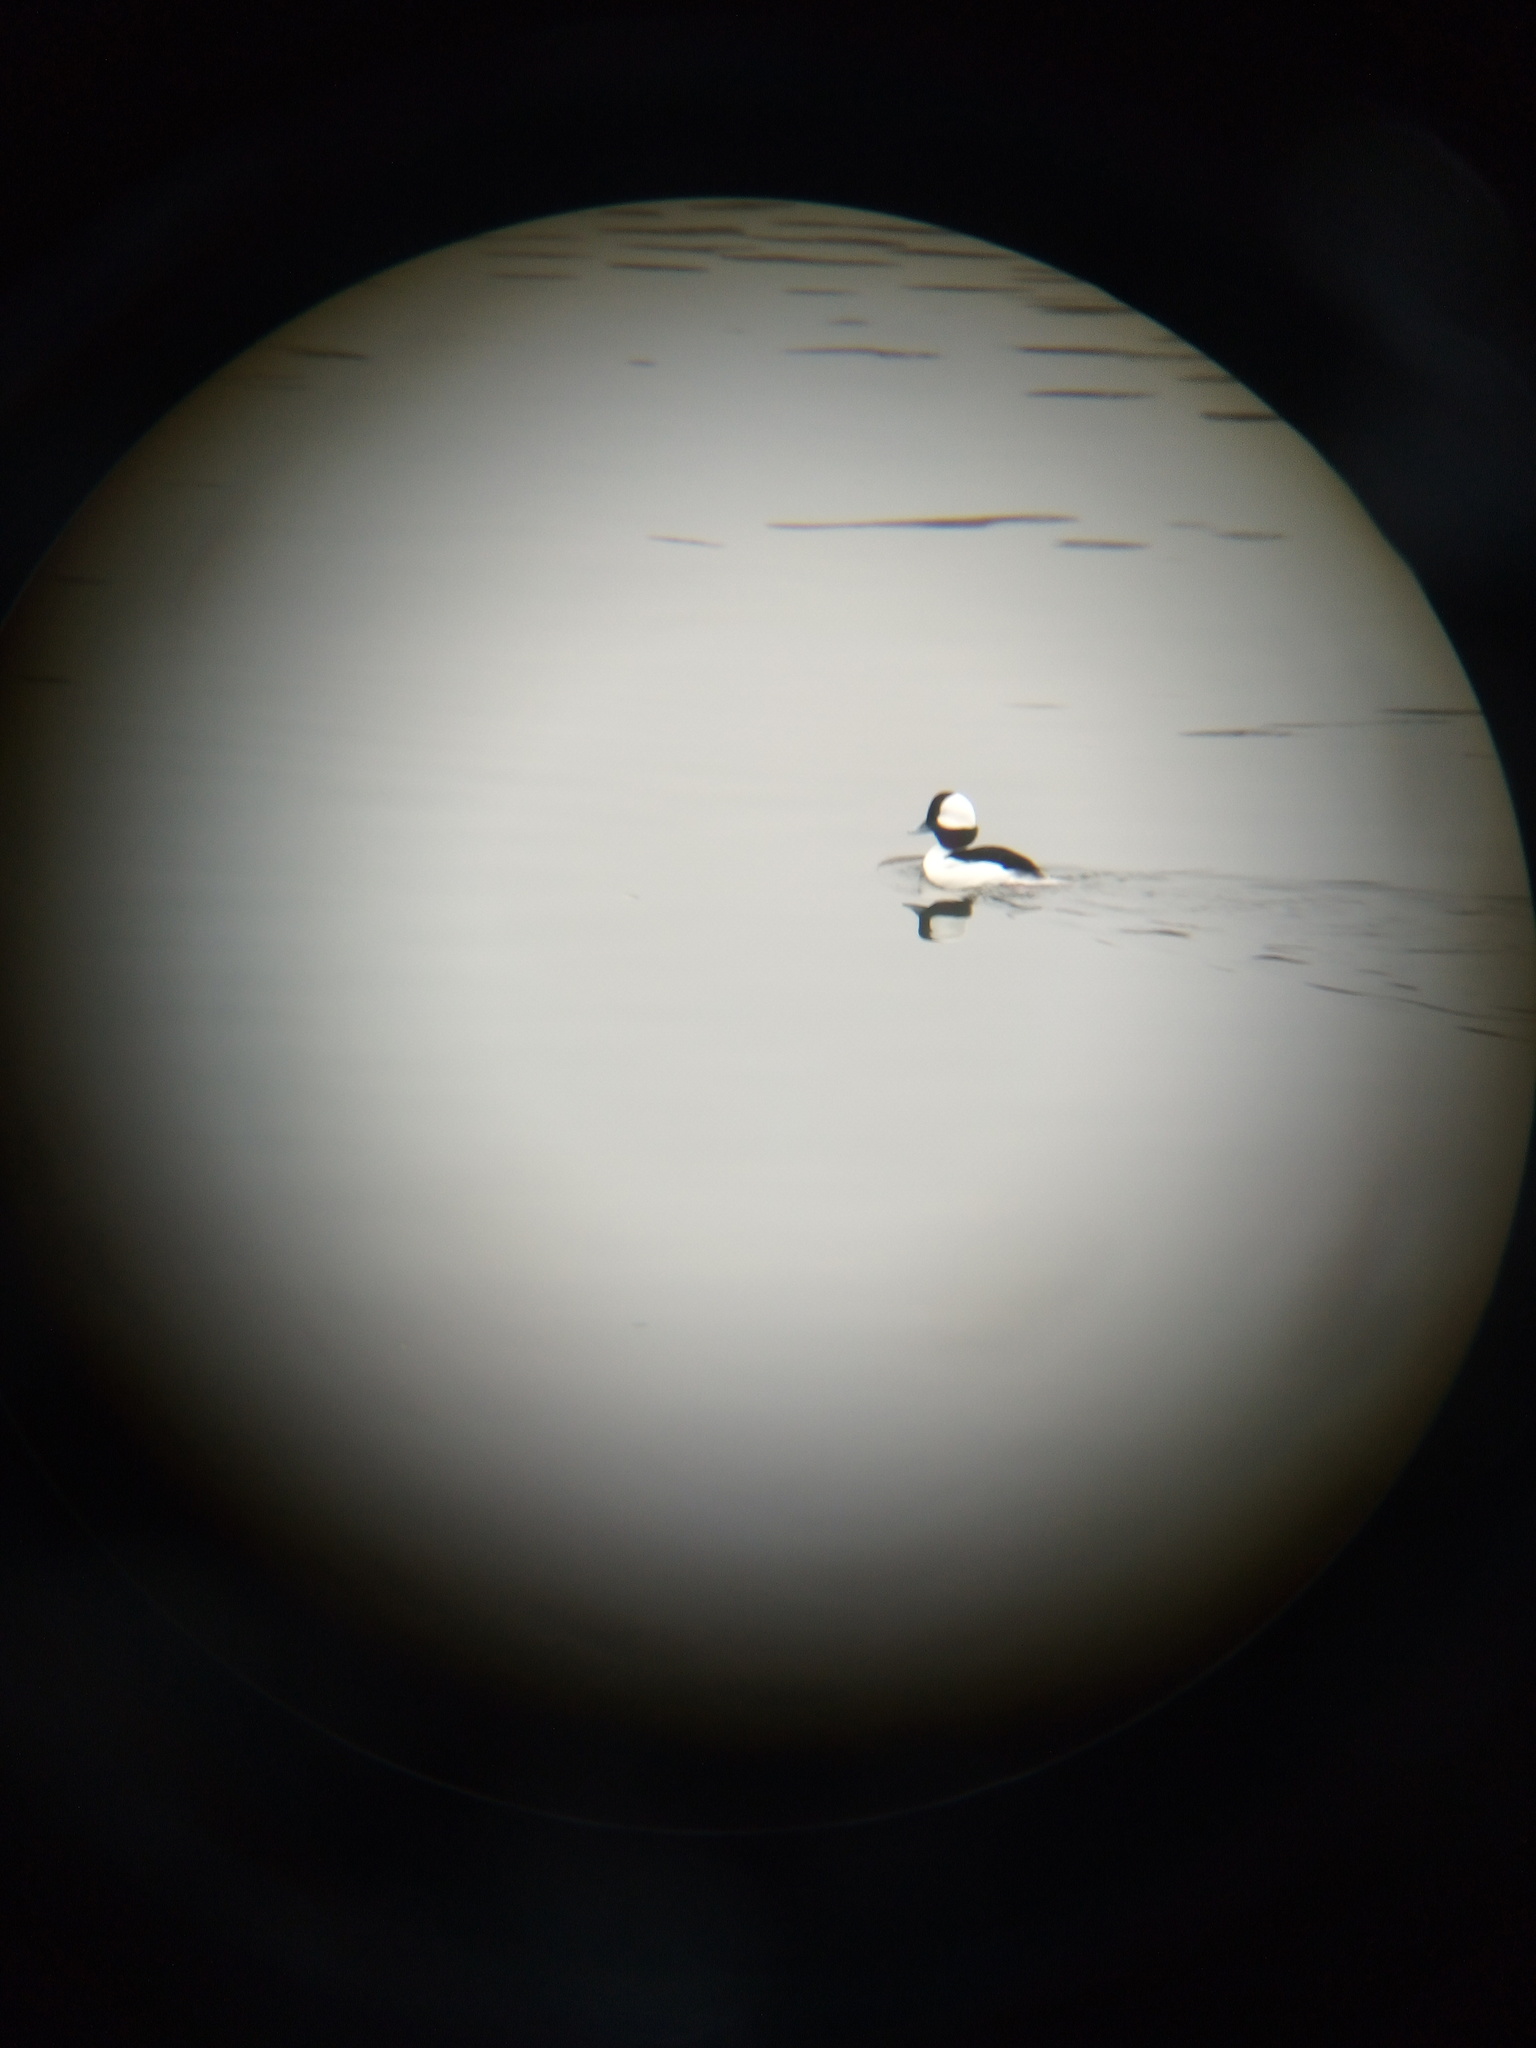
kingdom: Animalia
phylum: Chordata
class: Aves
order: Anseriformes
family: Anatidae
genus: Bucephala
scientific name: Bucephala albeola
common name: Bufflehead
